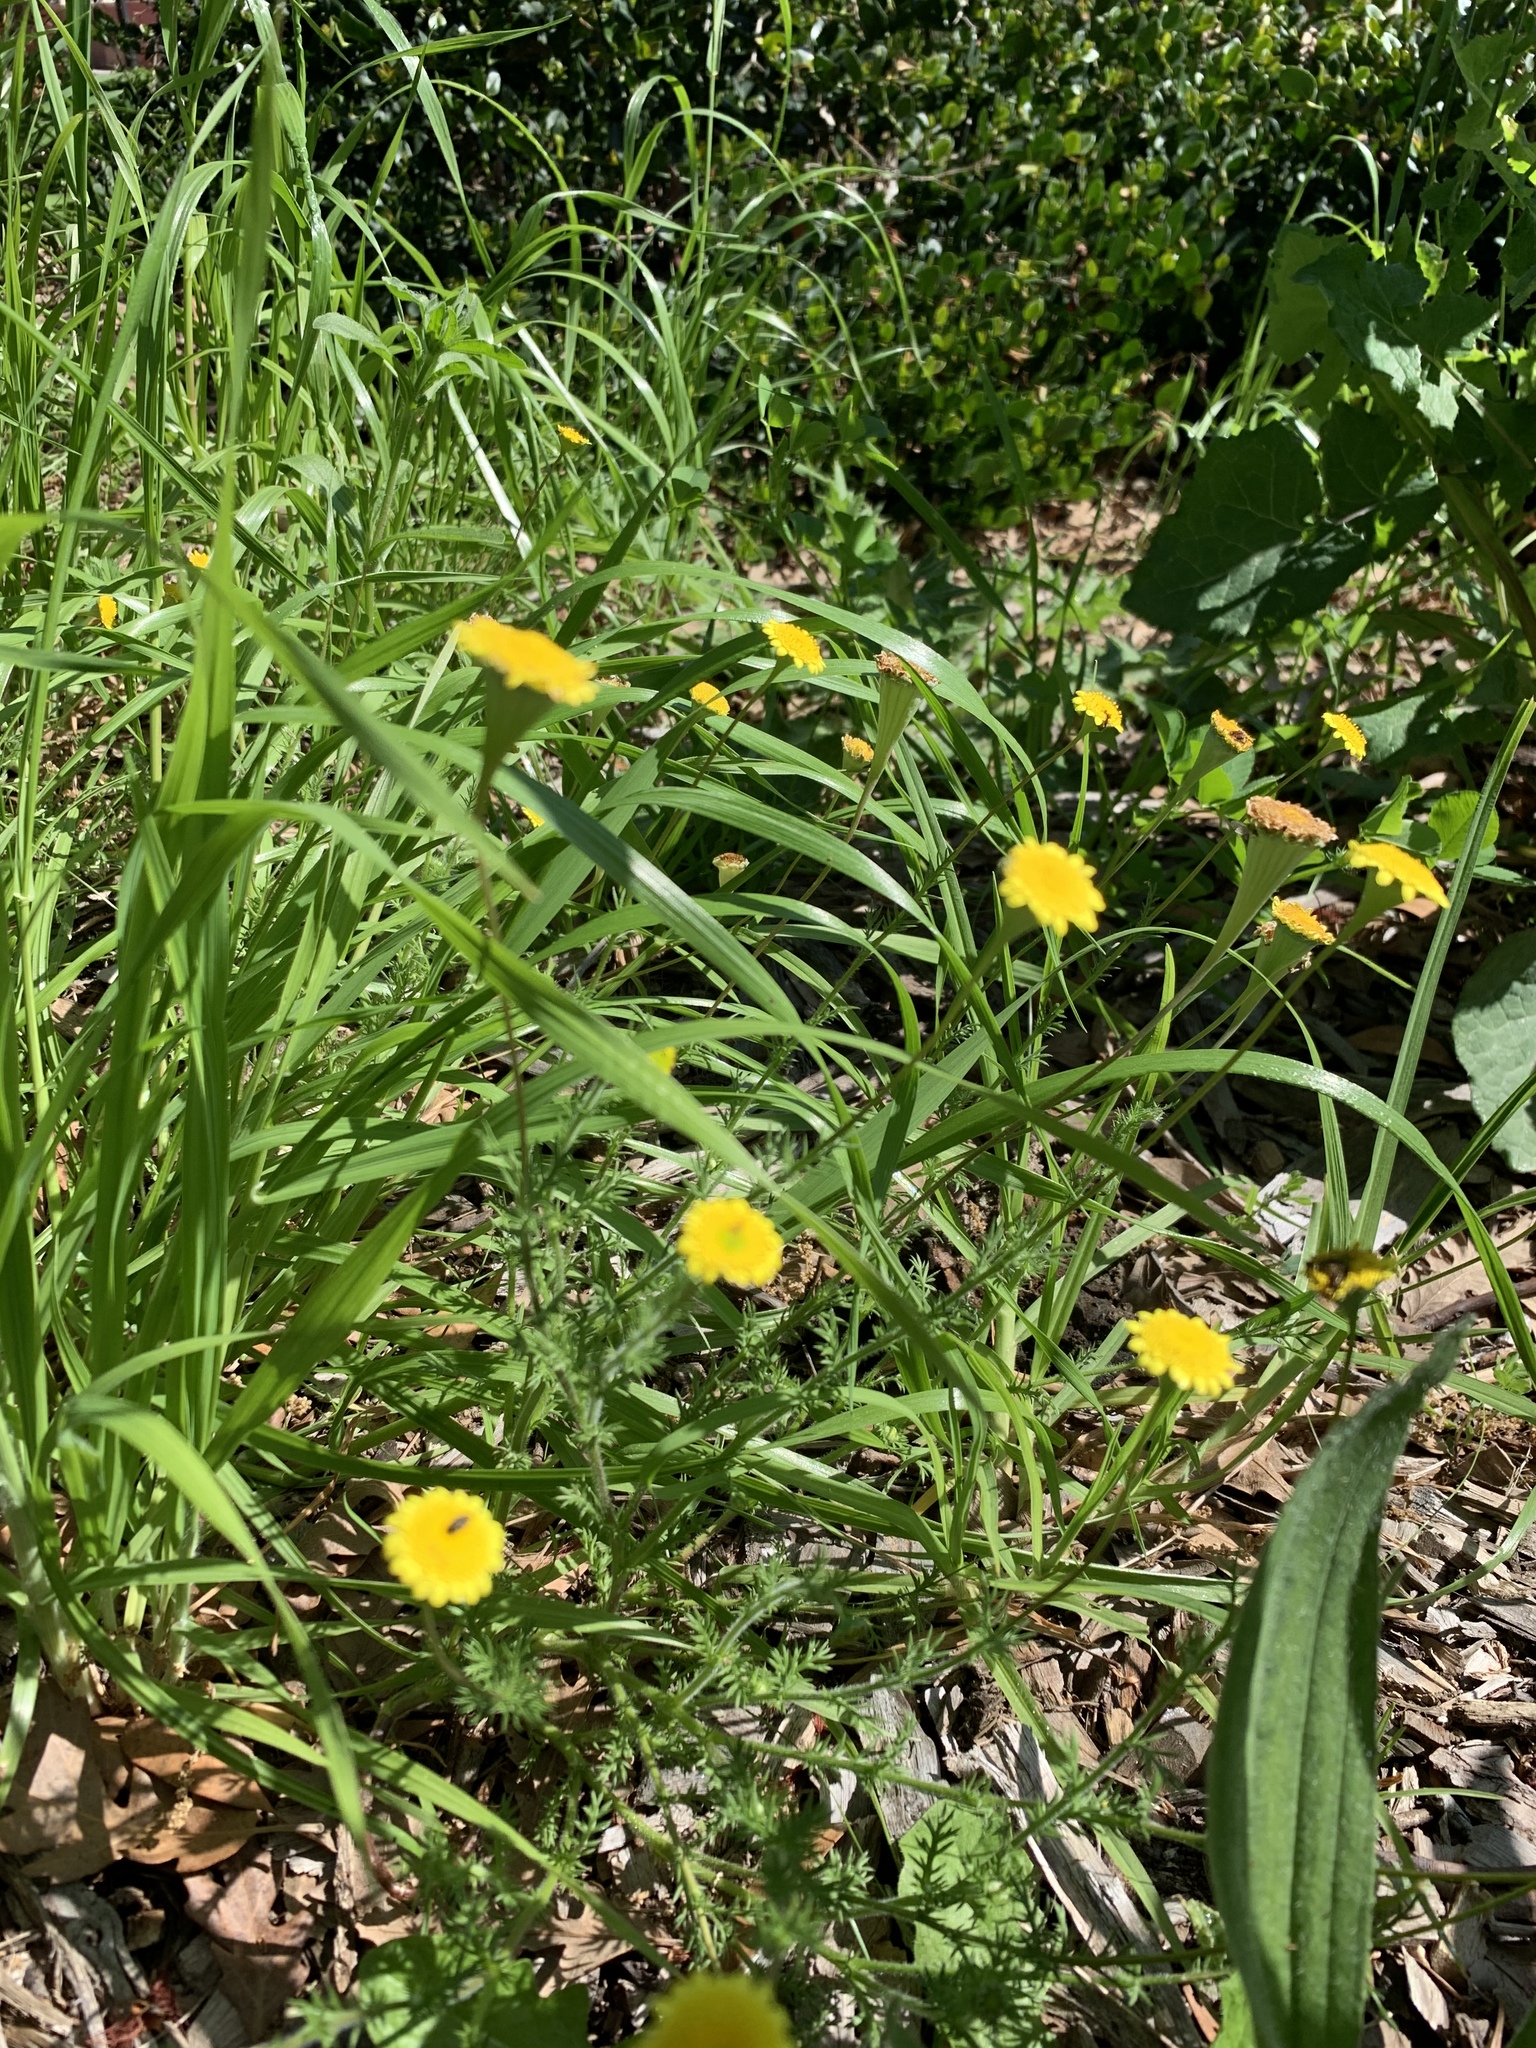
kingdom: Plantae
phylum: Tracheophyta
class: Magnoliopsida
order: Asterales
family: Asteraceae
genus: Cotula
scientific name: Cotula pruinosa
